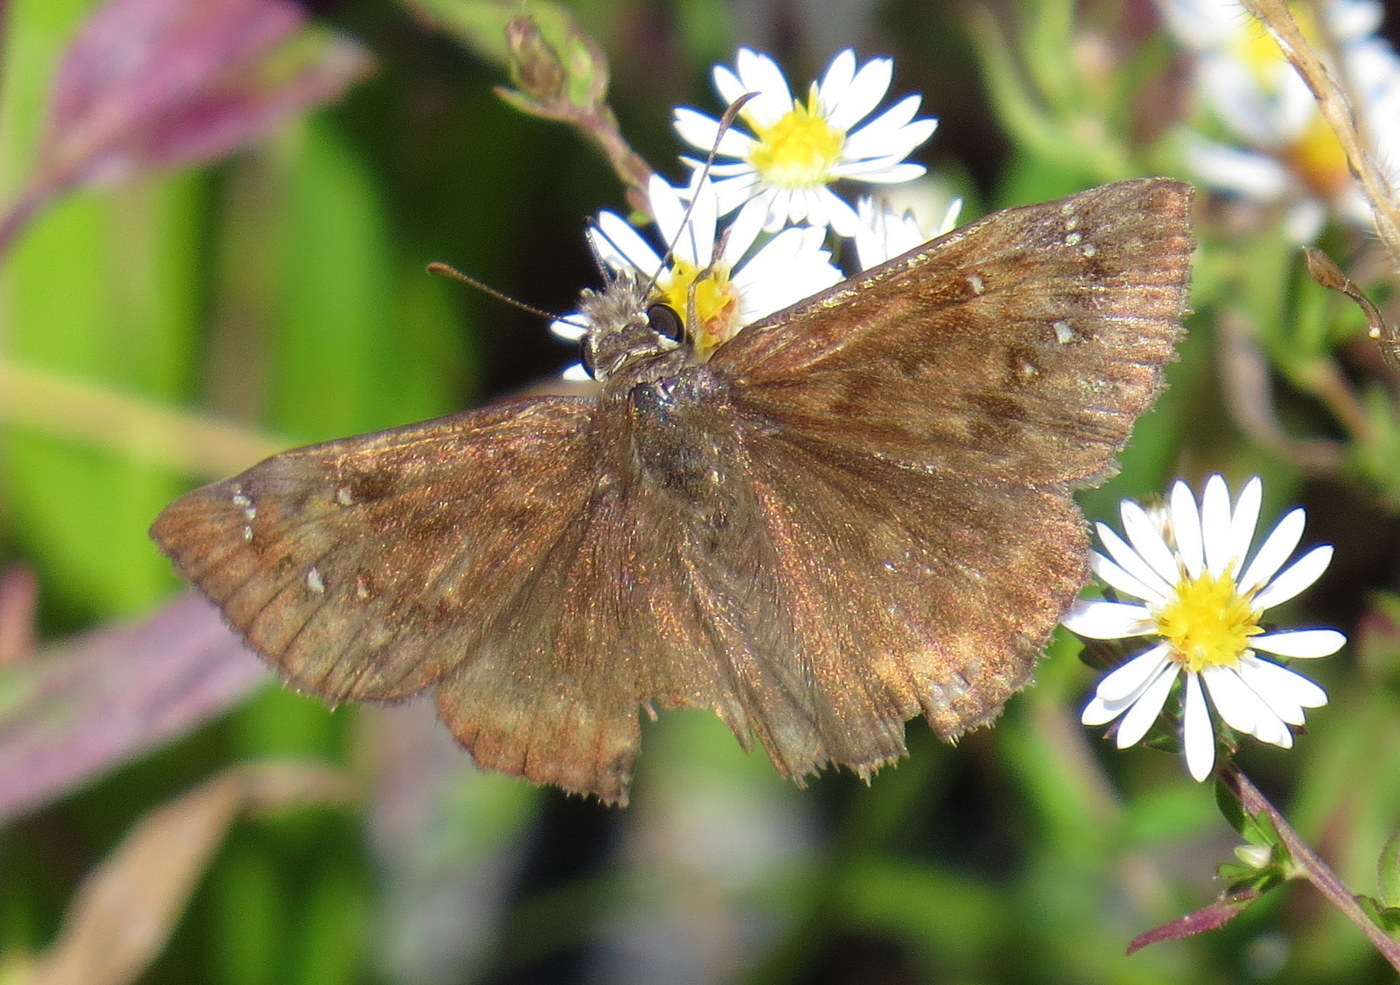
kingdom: Animalia
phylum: Arthropoda
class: Insecta
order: Lepidoptera
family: Hesperiidae
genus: Erynnis
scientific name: Erynnis horatius
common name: Horace's duskywing
